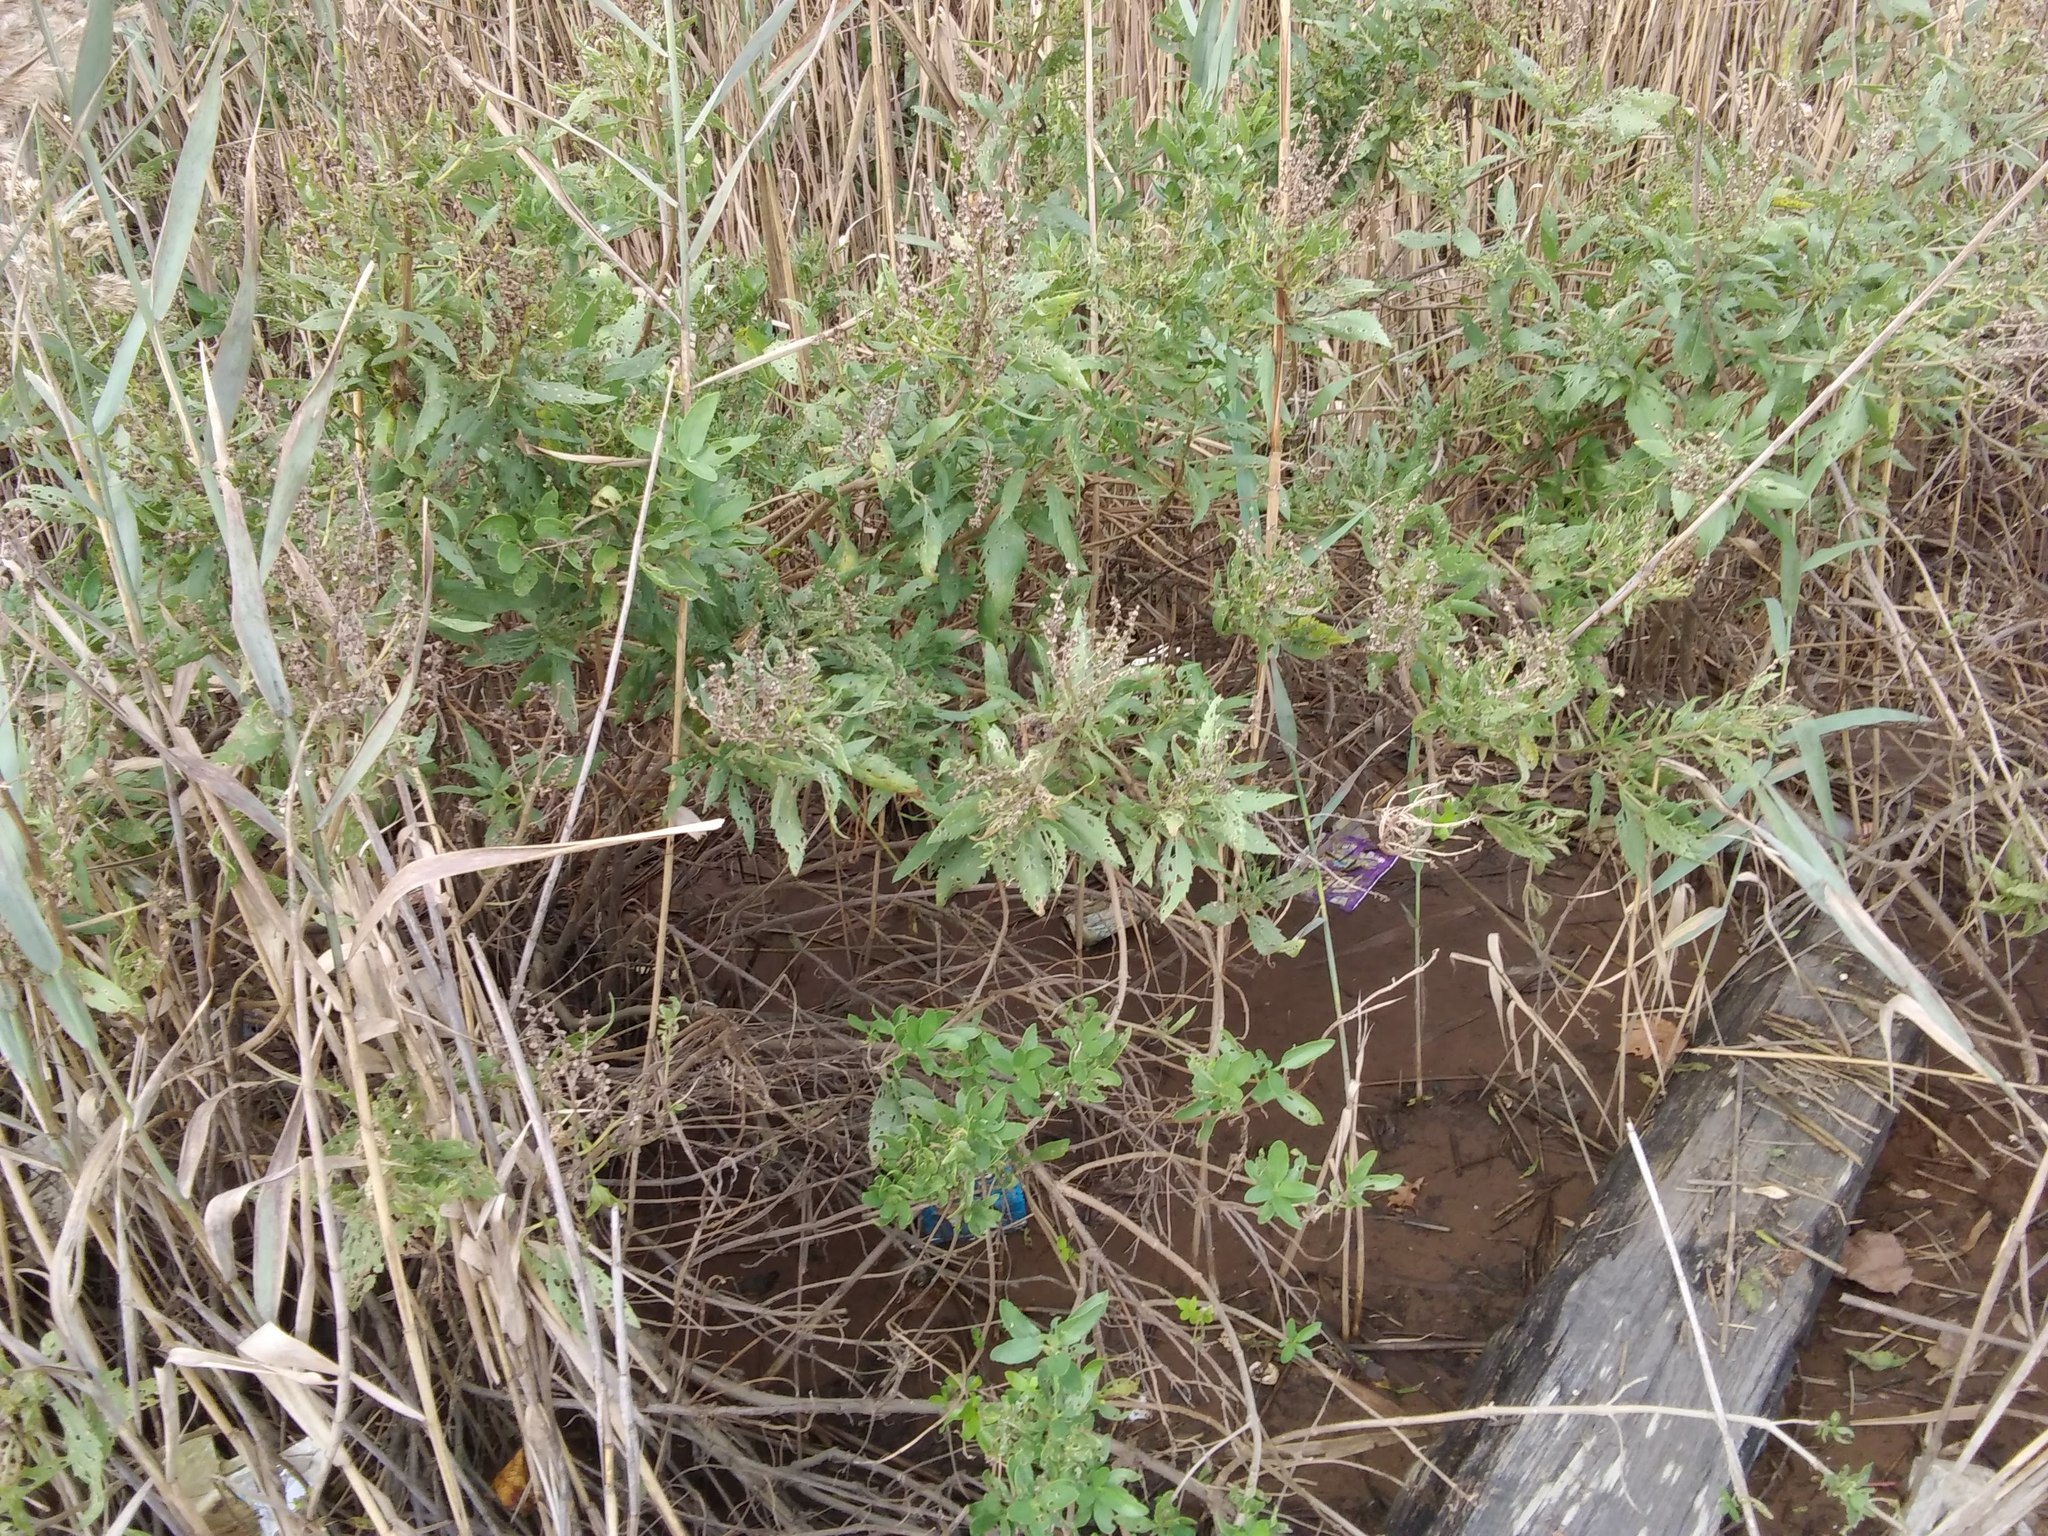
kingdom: Plantae
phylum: Tracheophyta
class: Magnoliopsida
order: Asterales
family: Asteraceae
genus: Iva
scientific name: Iva frutescens
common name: Big-leaved marsh-elder
